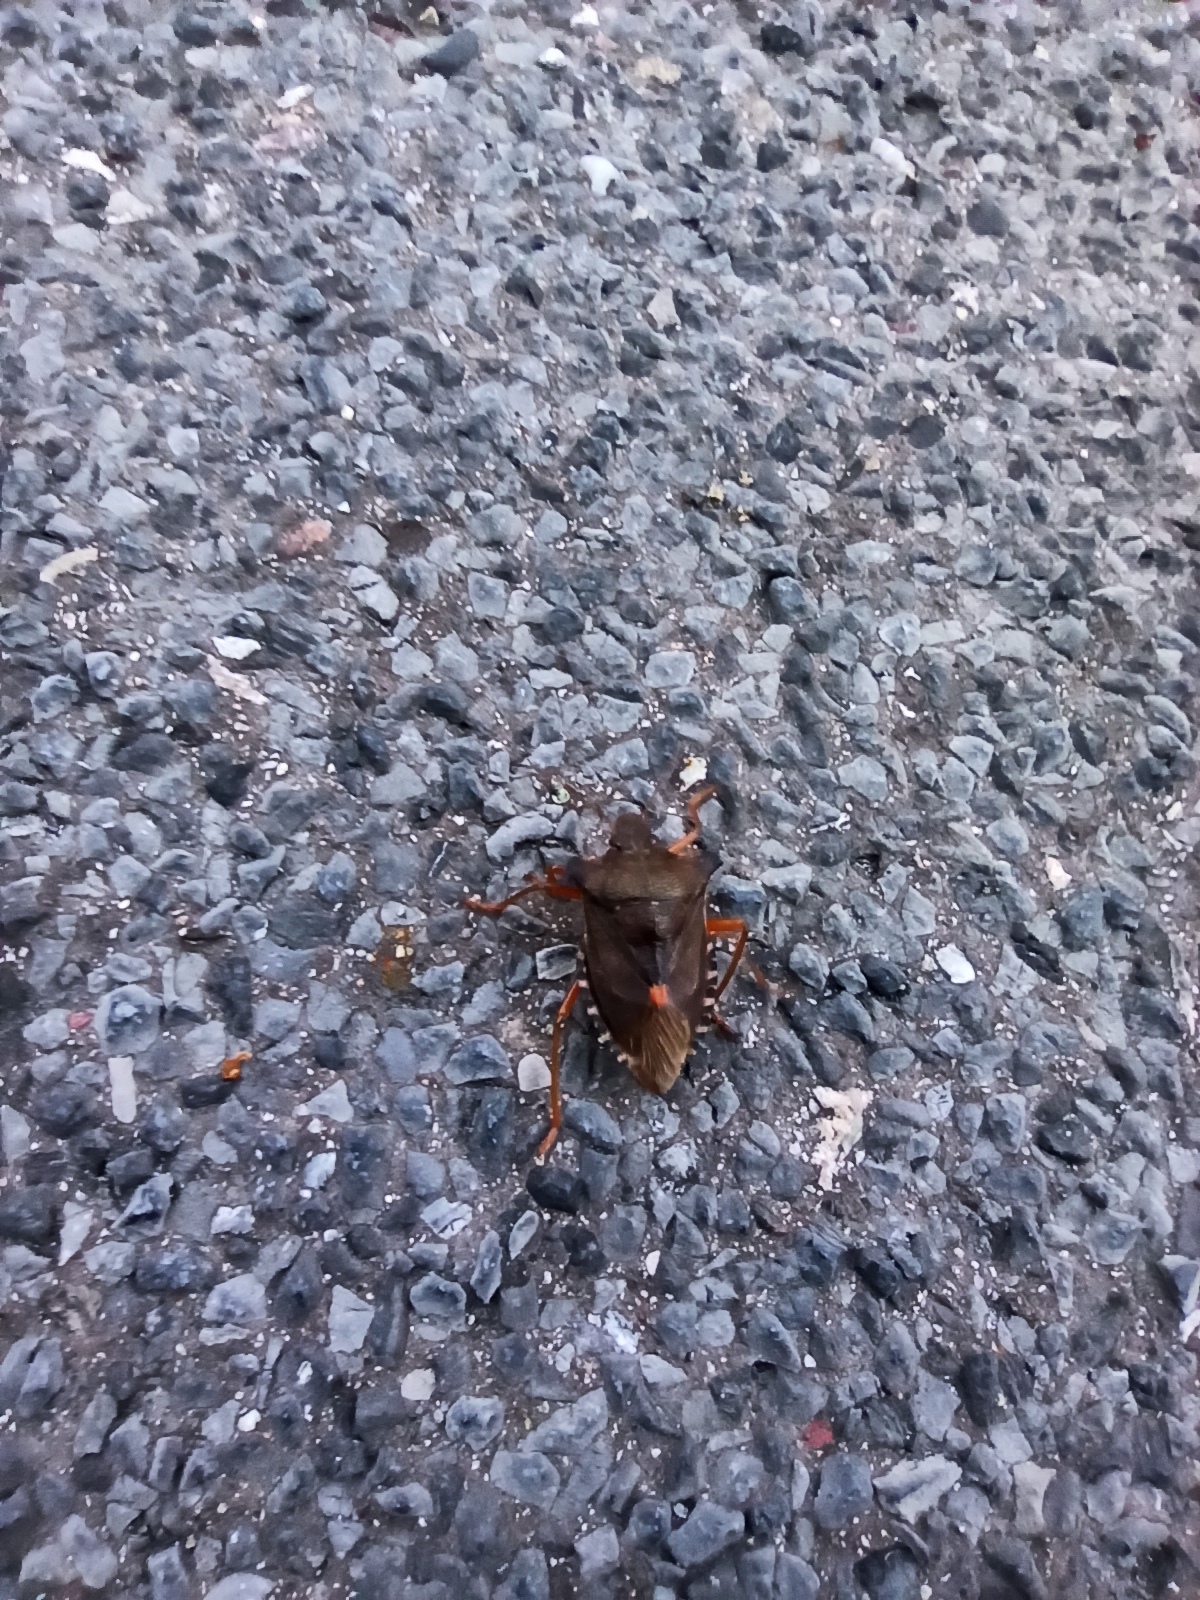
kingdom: Animalia
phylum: Arthropoda
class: Insecta
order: Hemiptera
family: Pentatomidae
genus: Pentatoma
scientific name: Pentatoma rufipes
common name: Forest bug
